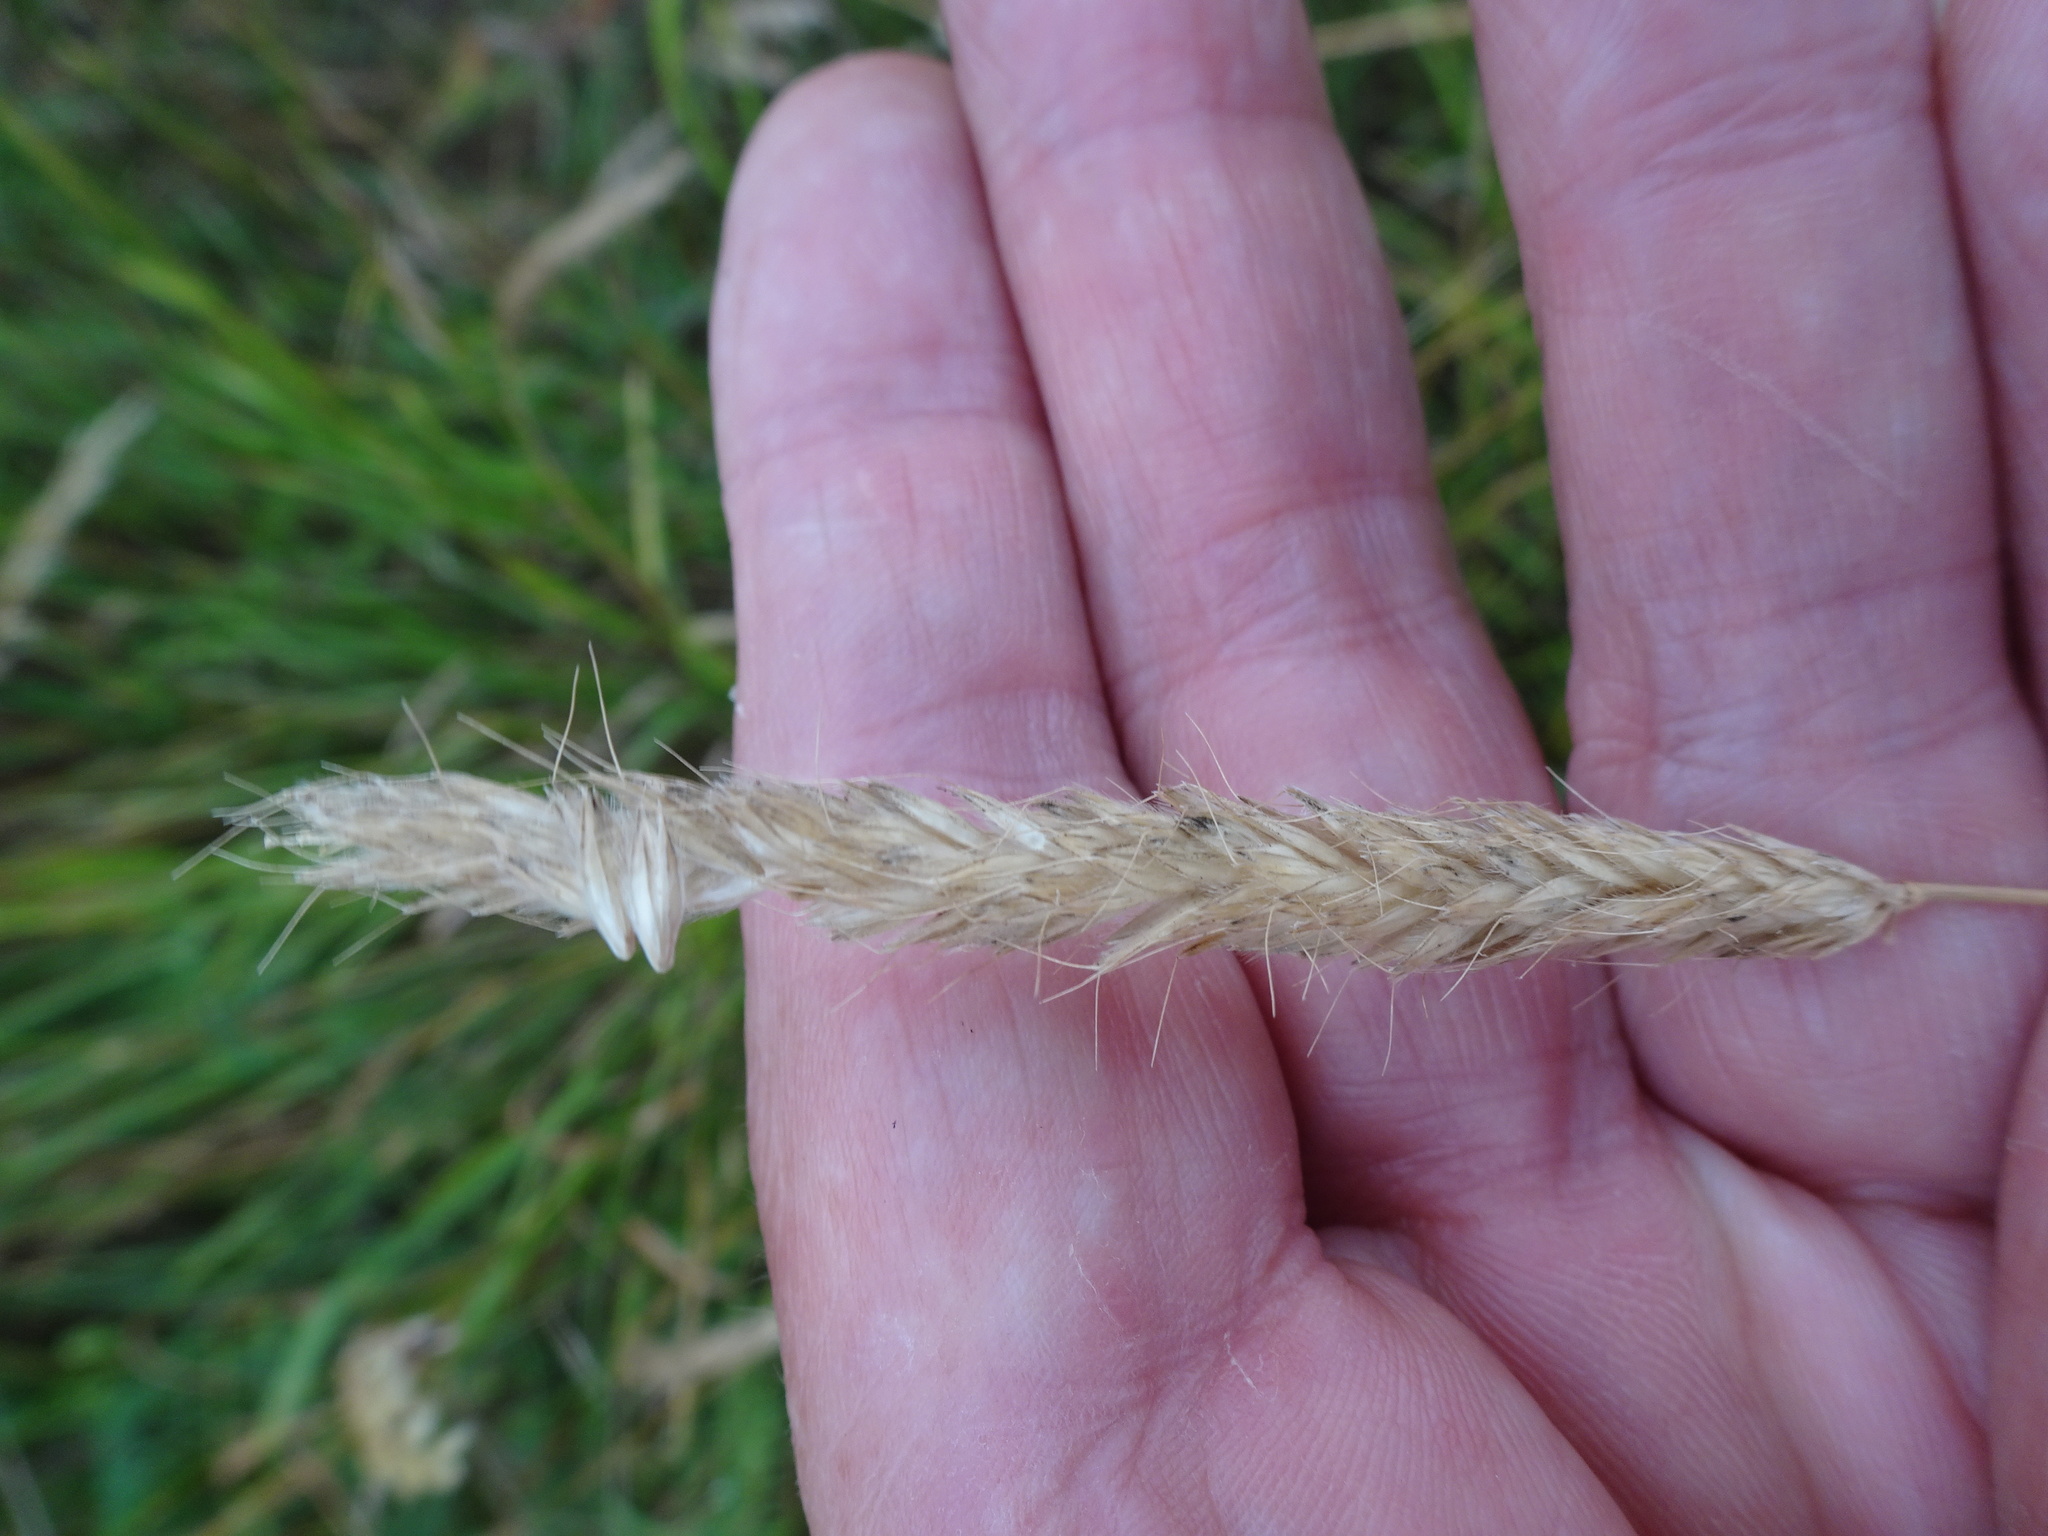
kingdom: Plantae
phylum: Tracheophyta
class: Liliopsida
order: Poales
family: Poaceae
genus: Alopecurus
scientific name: Alopecurus pratensis
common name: Meadow foxtail
